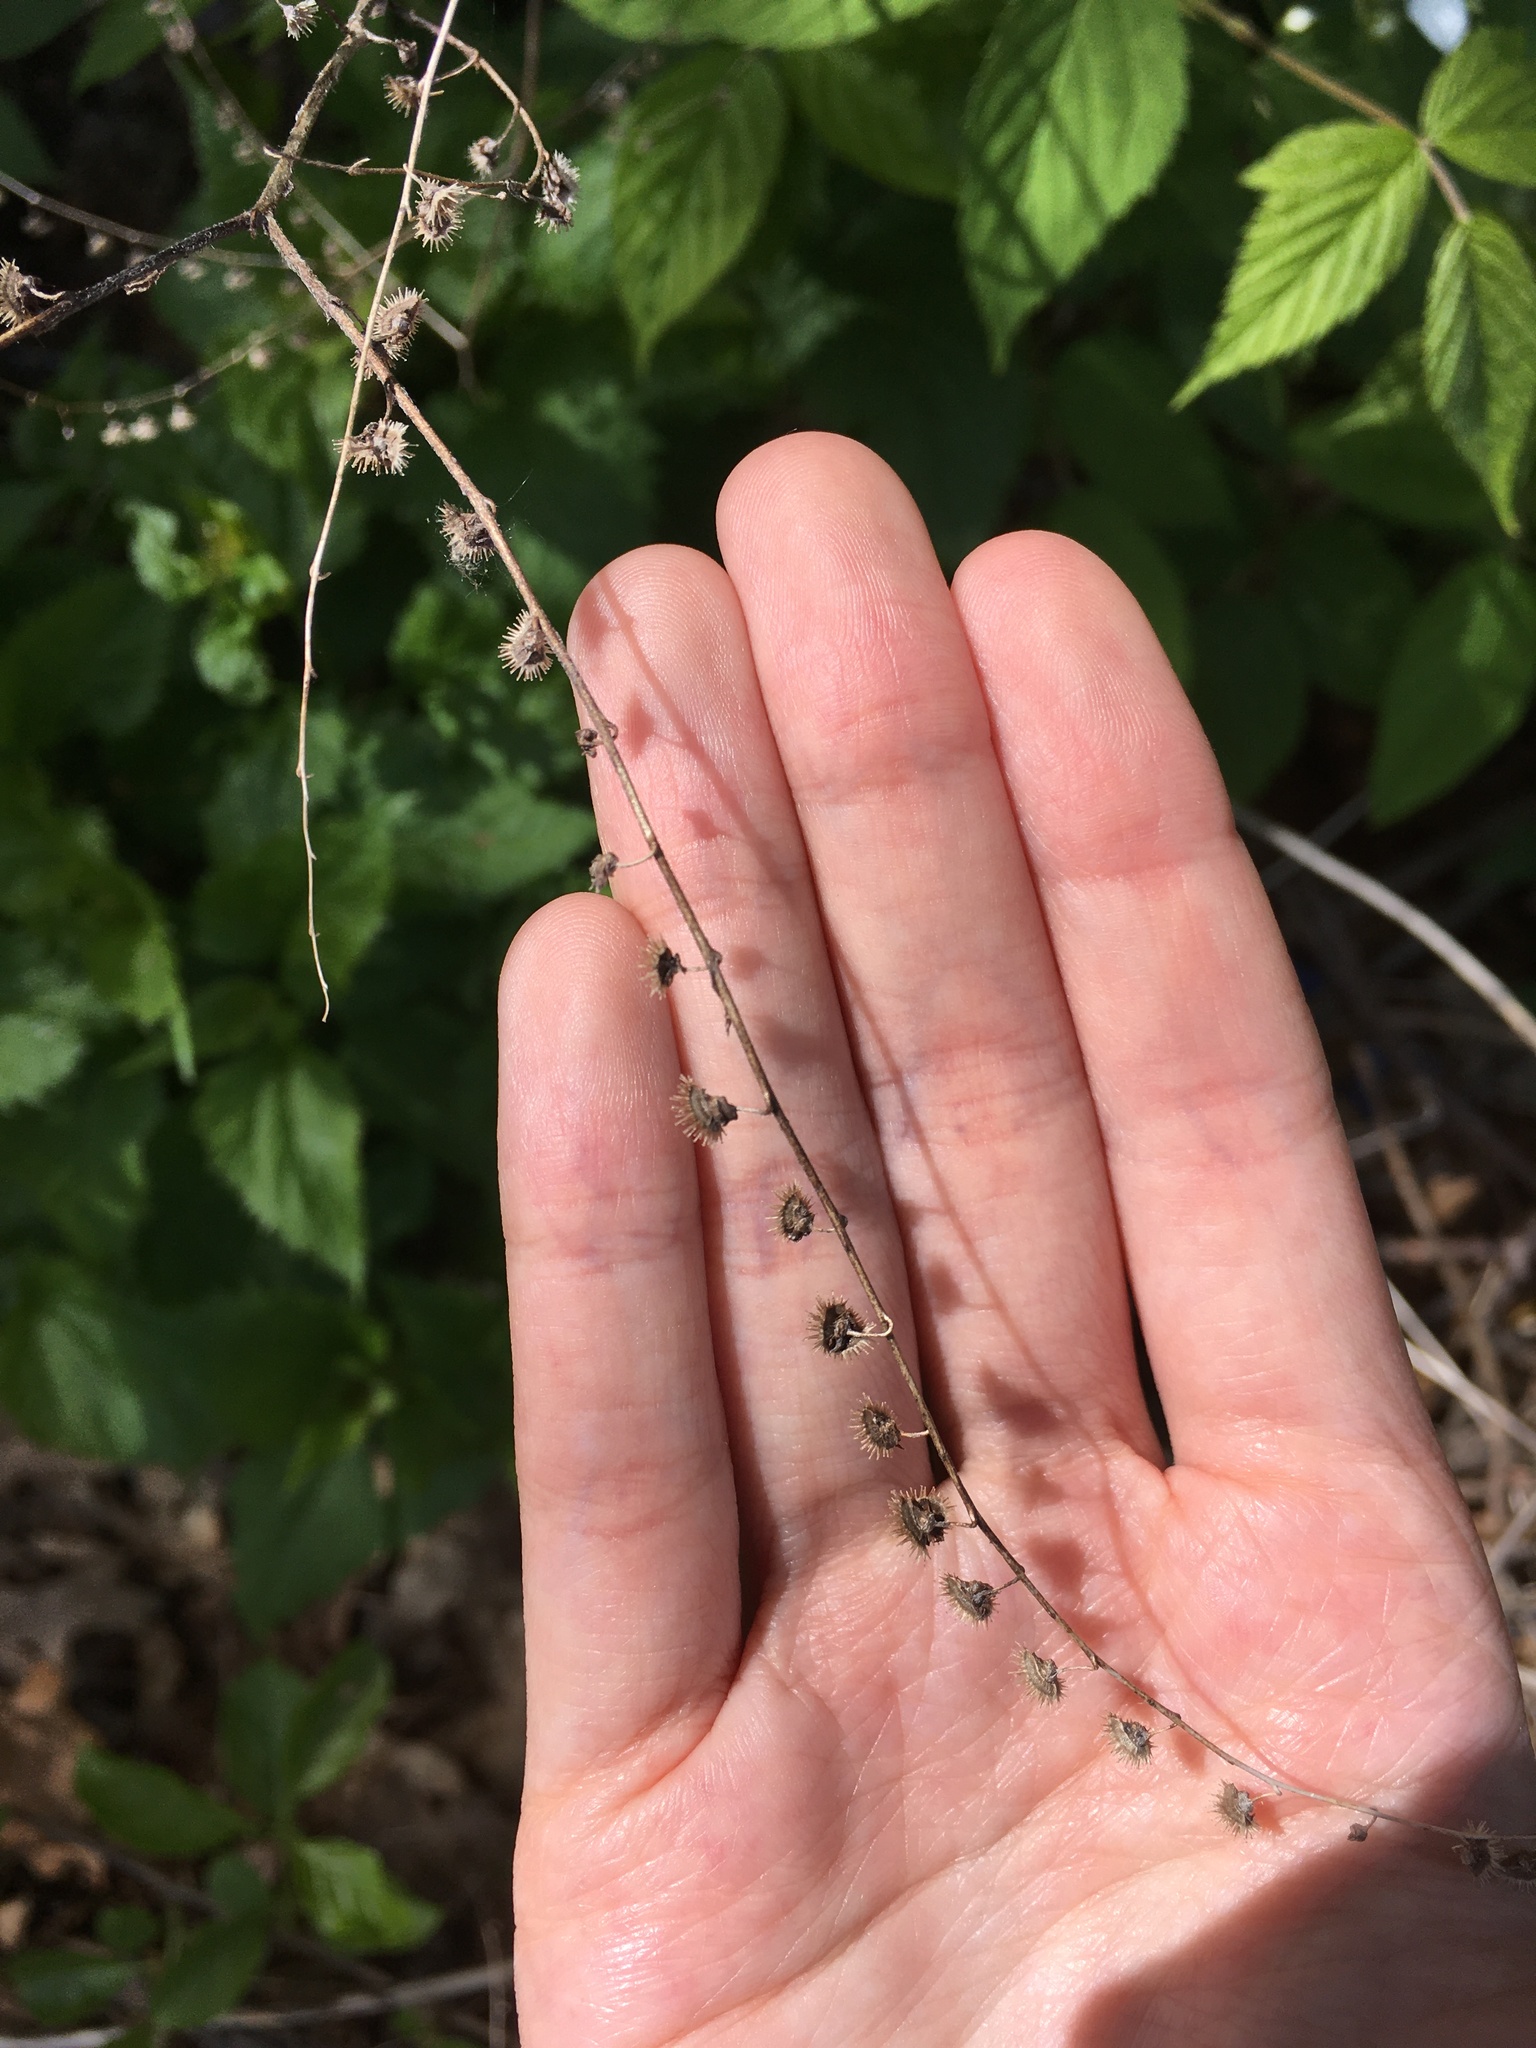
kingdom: Plantae
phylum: Tracheophyta
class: Magnoliopsida
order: Boraginales
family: Boraginaceae
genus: Hackelia
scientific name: Hackelia virginiana
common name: Beggar's-lice
